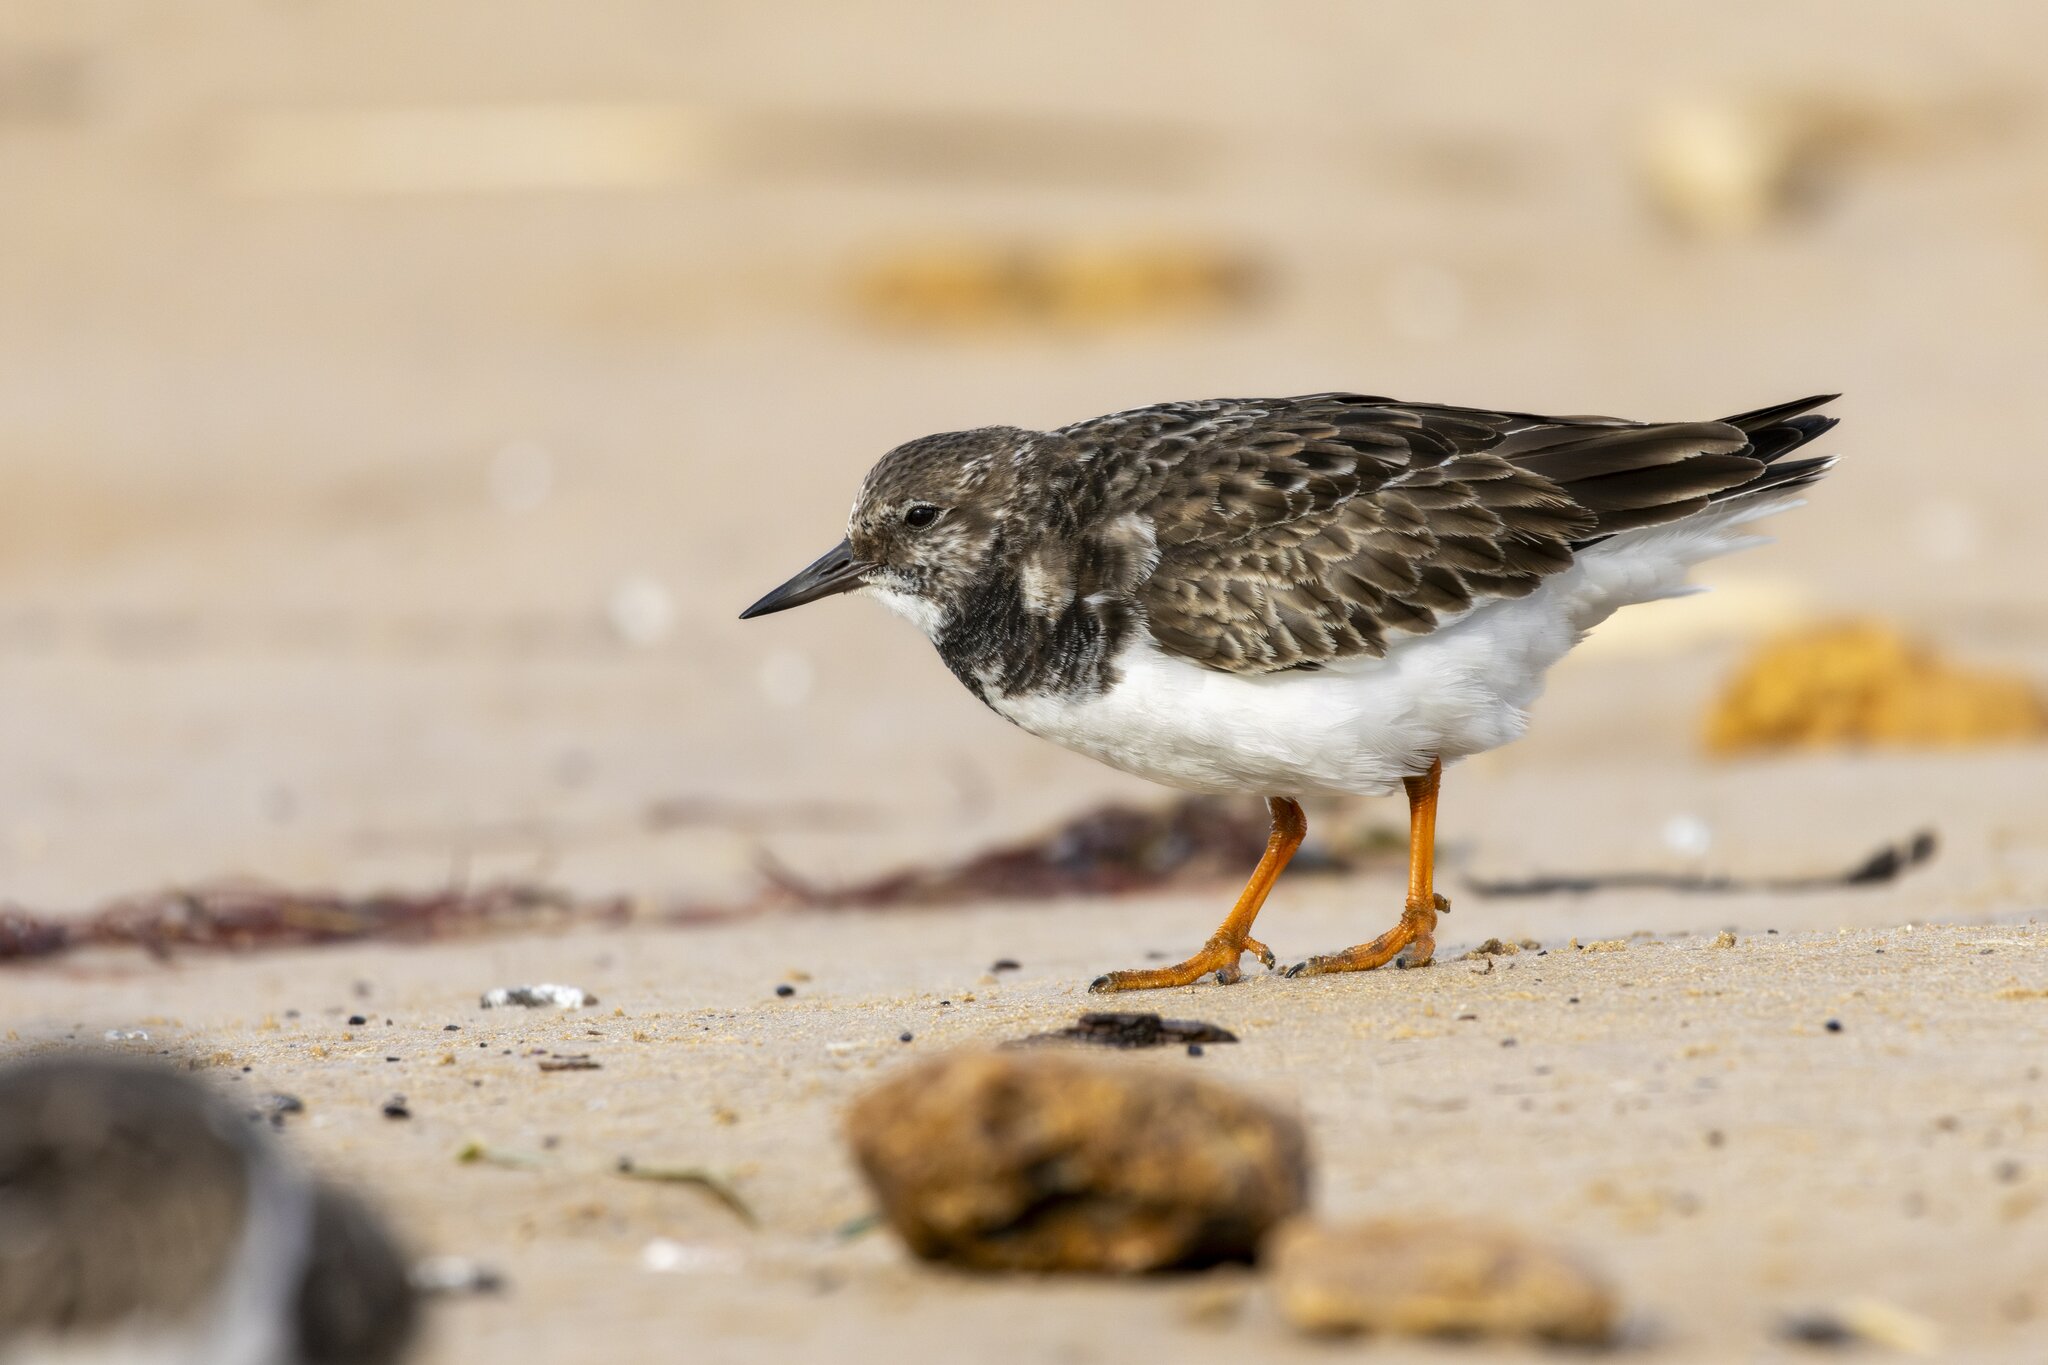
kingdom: Animalia
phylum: Chordata
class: Aves
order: Charadriiformes
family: Scolopacidae
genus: Arenaria
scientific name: Arenaria interpres
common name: Ruddy turnstone
